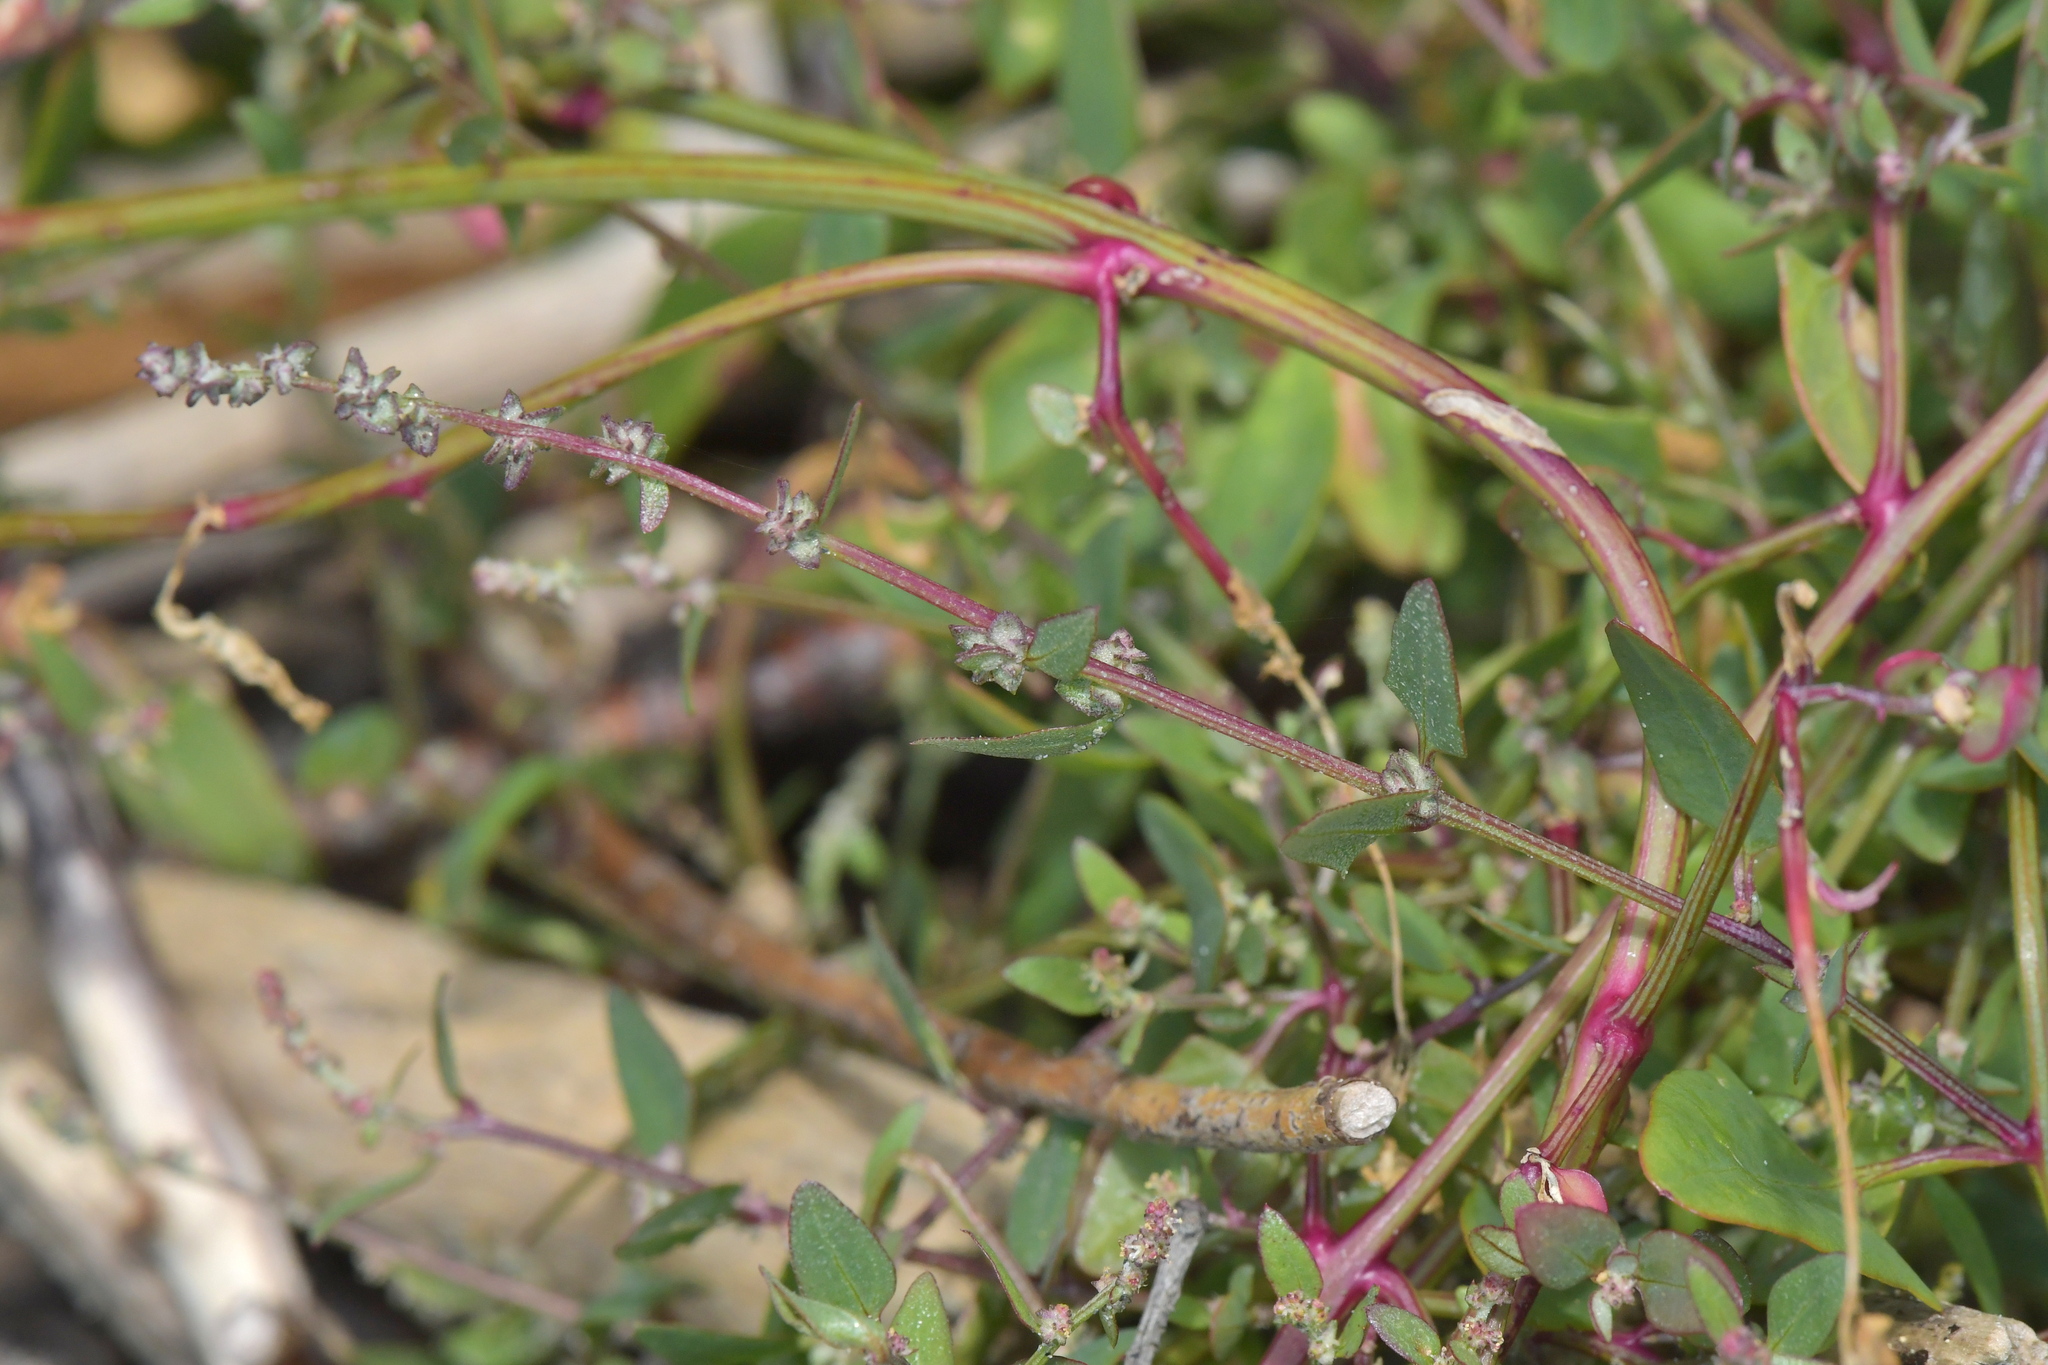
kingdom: Plantae
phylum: Tracheophyta
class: Magnoliopsida
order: Caryophyllales
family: Amaranthaceae
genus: Atriplex
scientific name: Atriplex prostrata
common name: Spear-leaved orache
